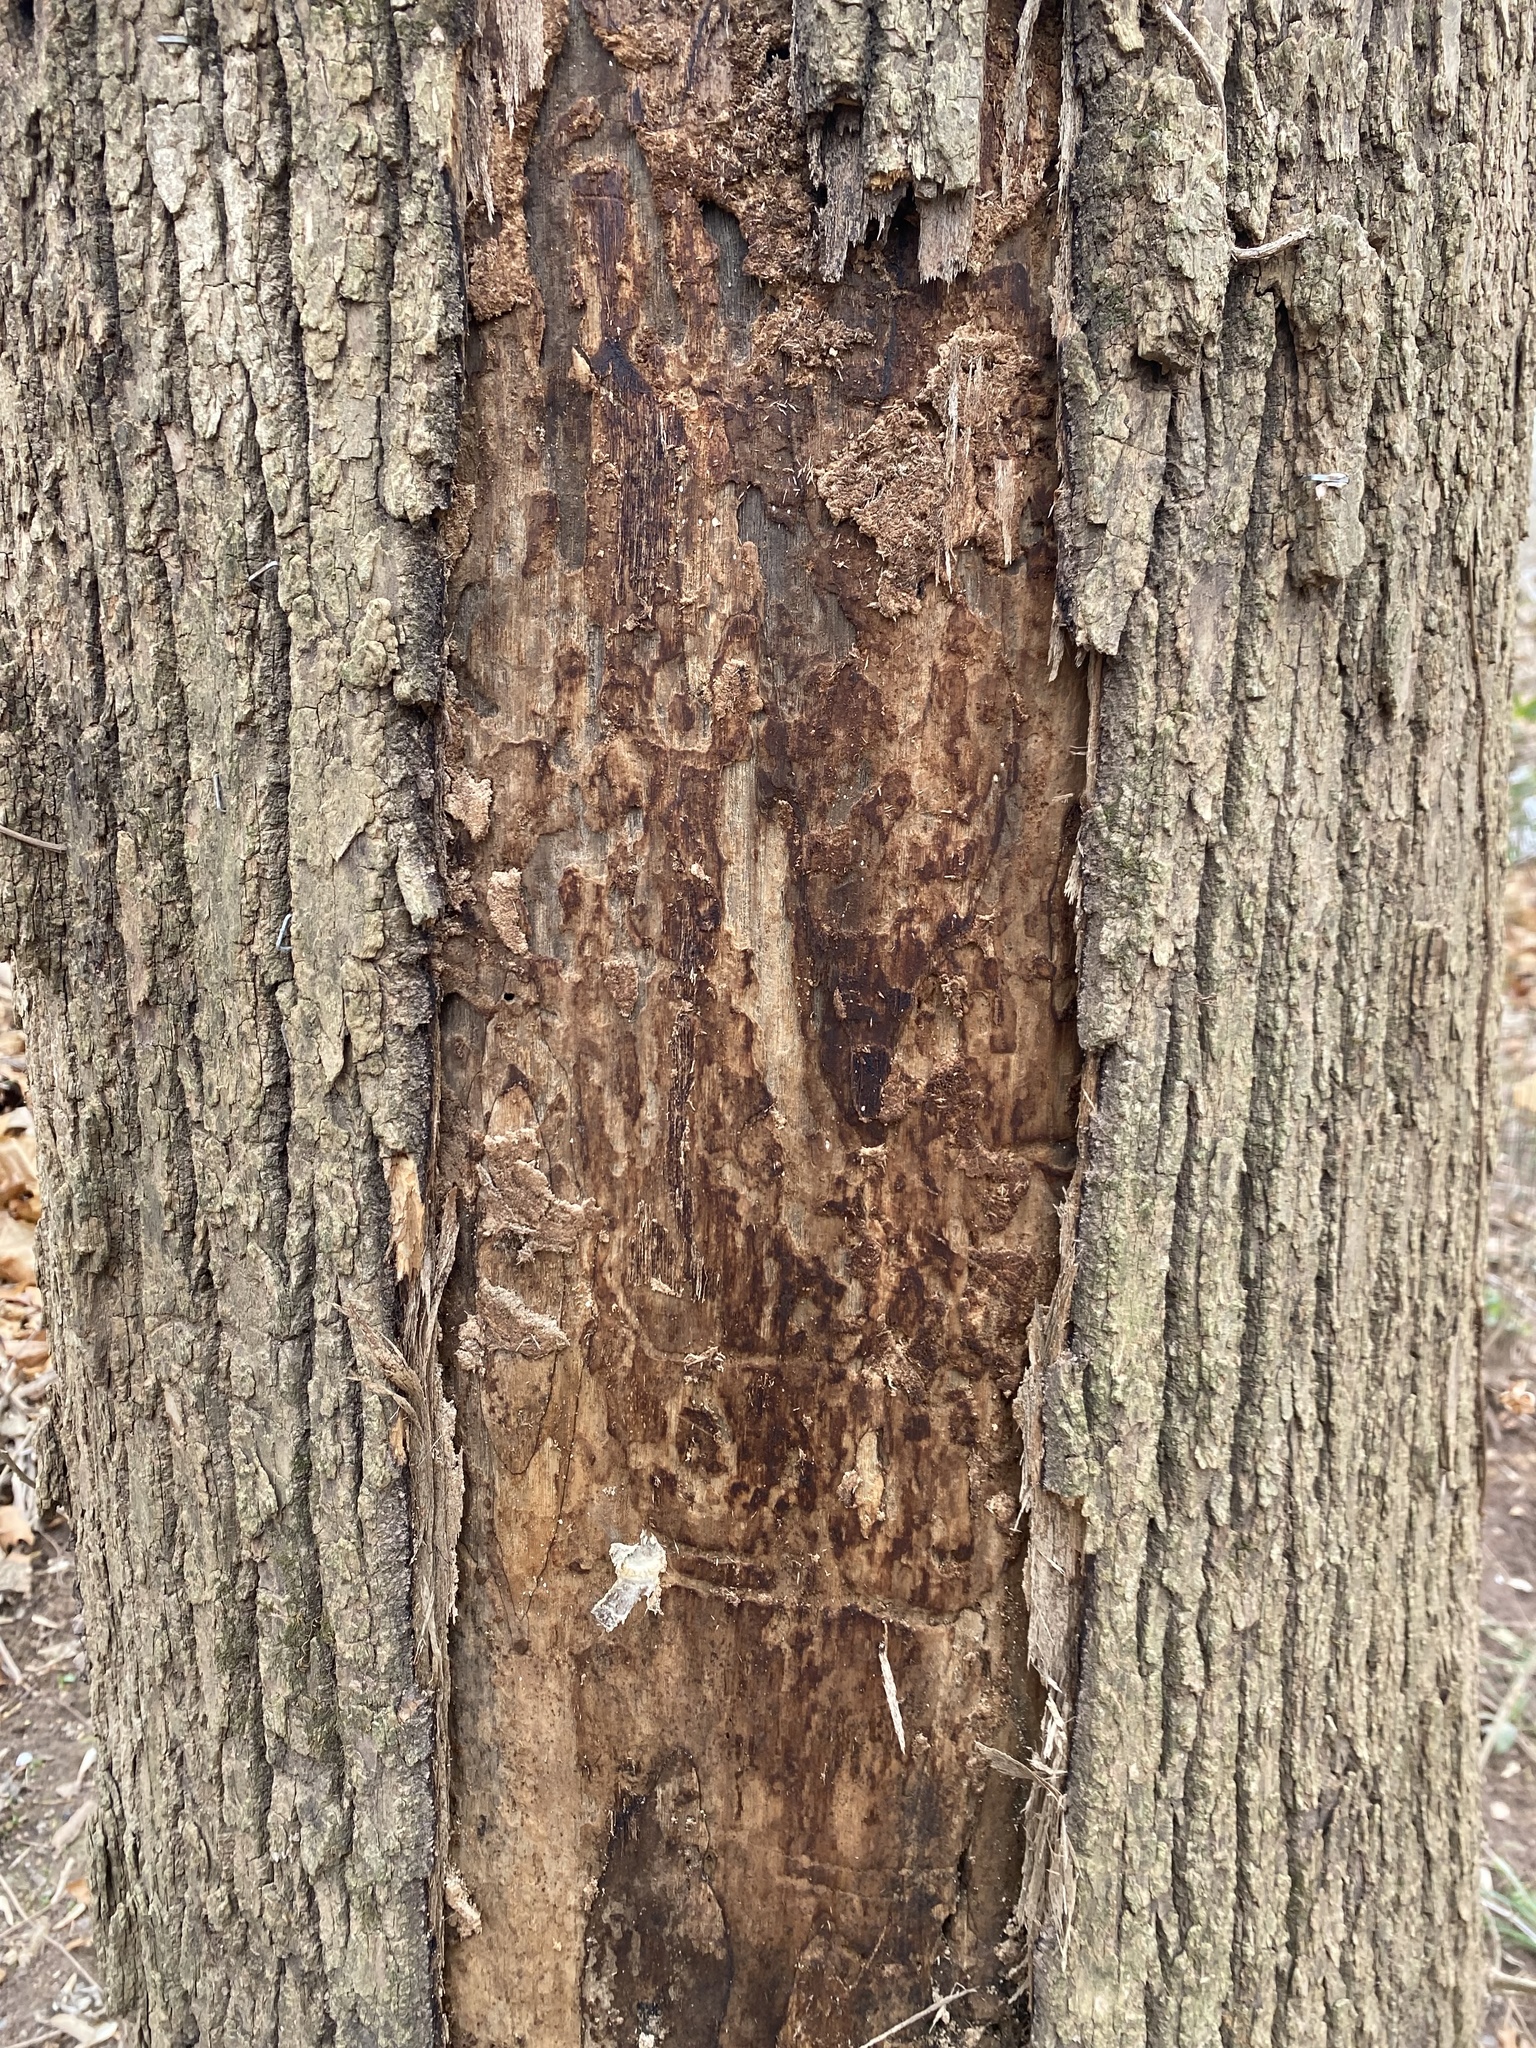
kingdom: Animalia
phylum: Arthropoda
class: Insecta
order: Coleoptera
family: Buprestidae
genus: Agrilus
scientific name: Agrilus planipennis
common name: Emerald ash borer
